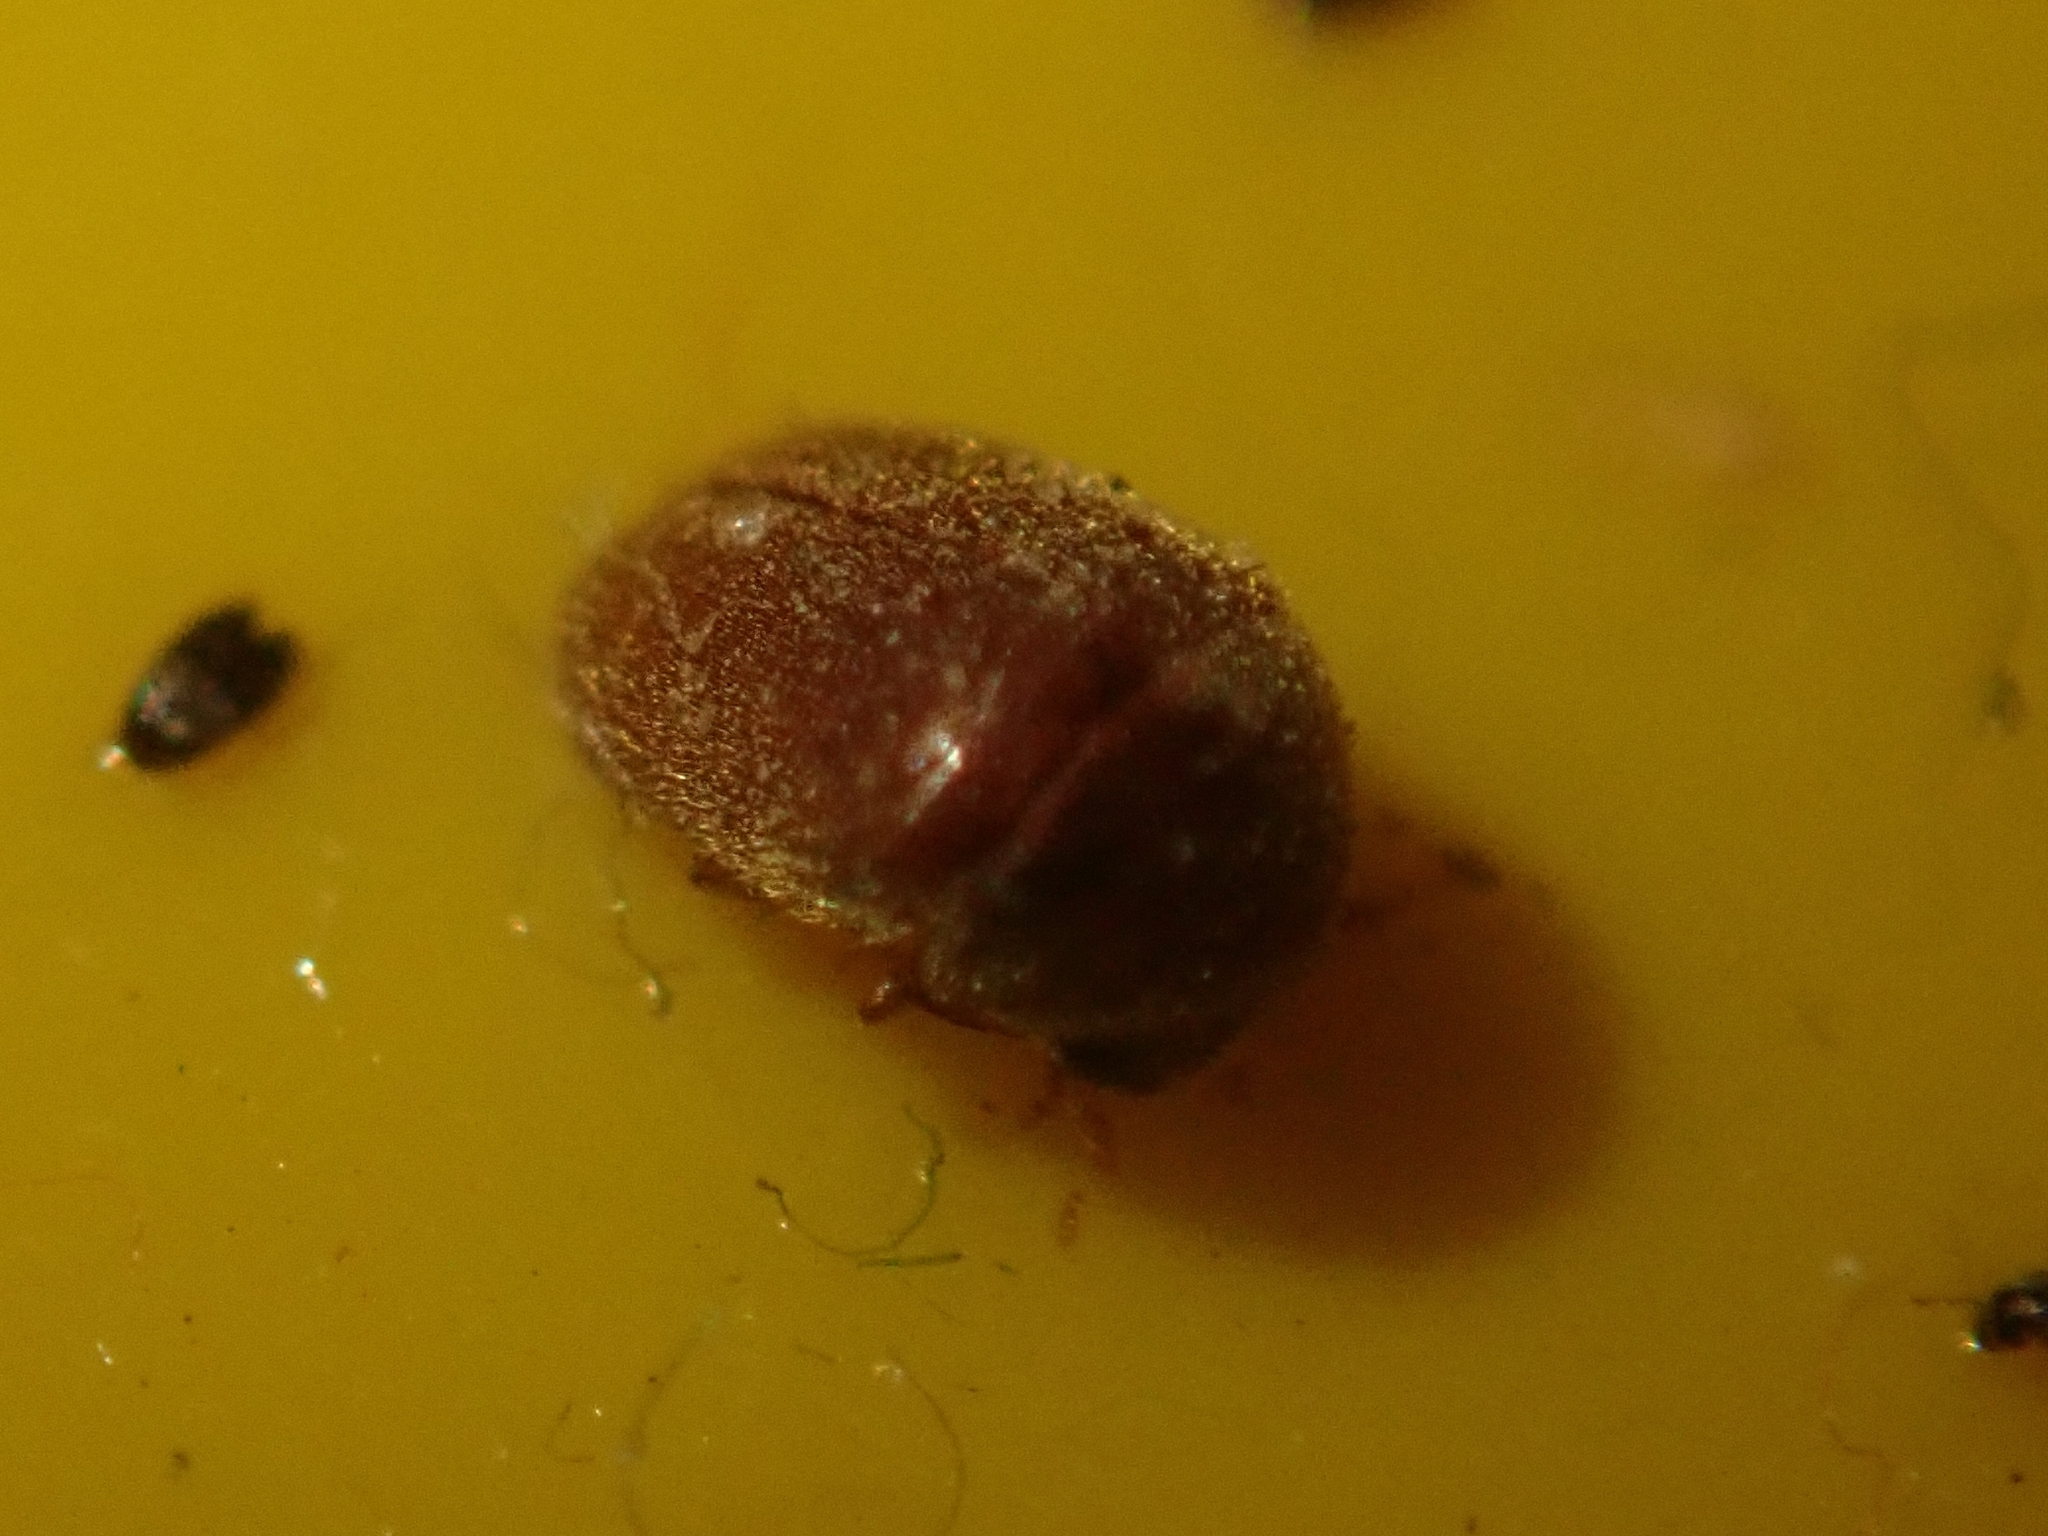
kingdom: Animalia
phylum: Arthropoda
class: Insecta
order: Coleoptera
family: Anobiidae
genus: Lasioderma
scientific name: Lasioderma serricorne
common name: Cigarette beetle
